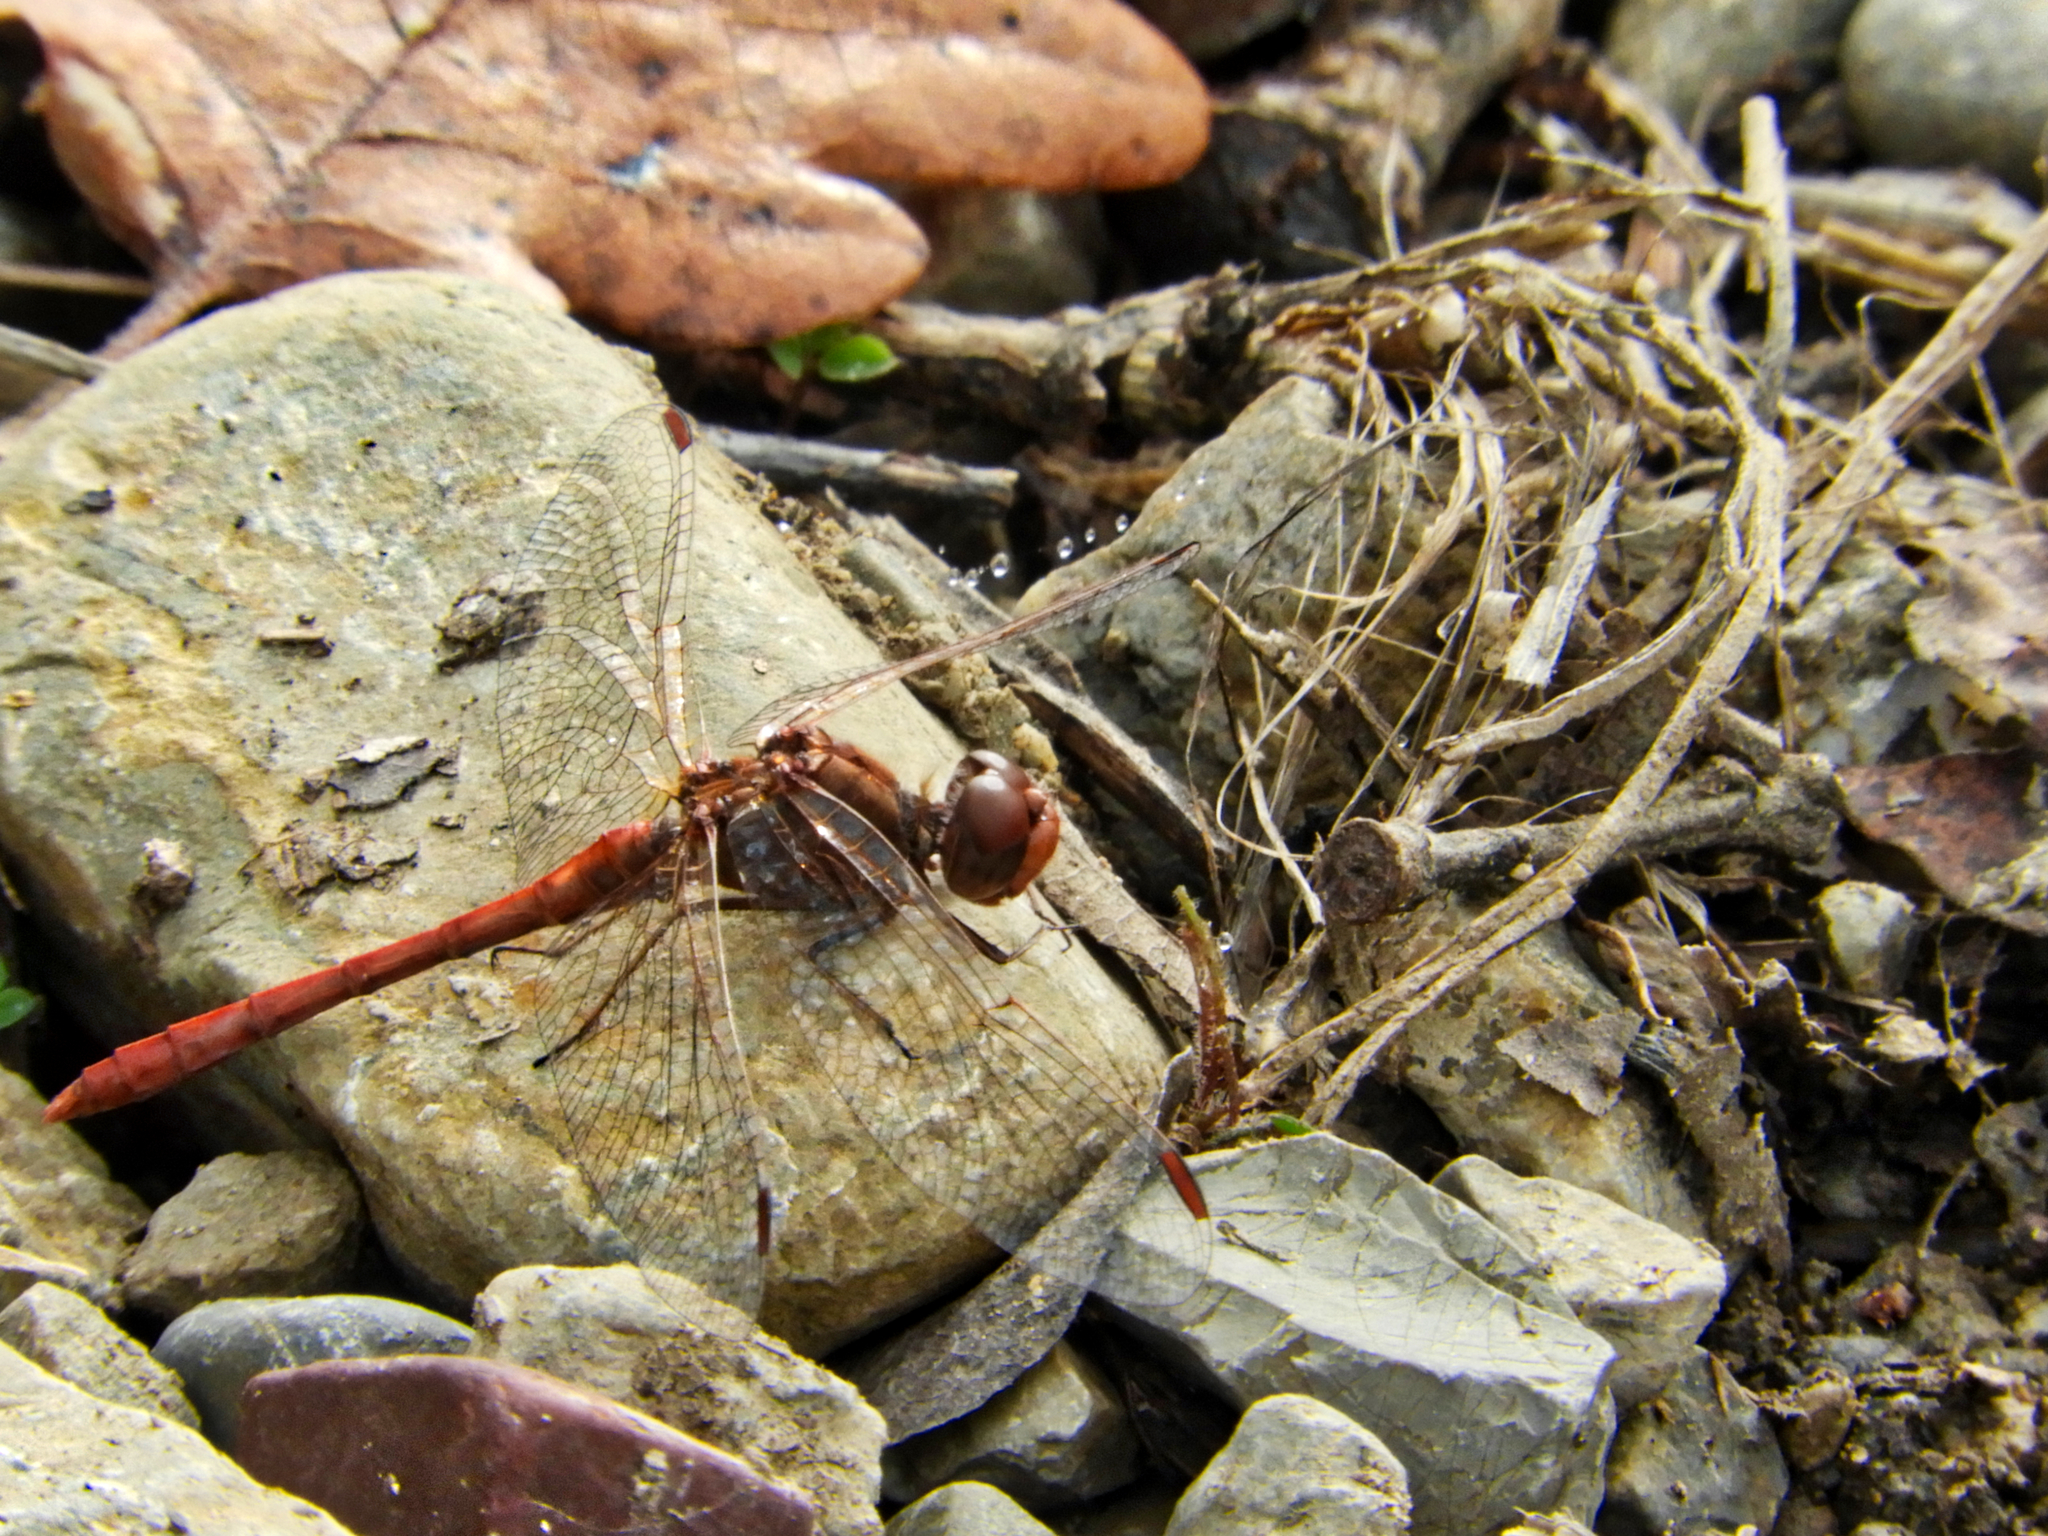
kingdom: Animalia
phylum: Arthropoda
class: Insecta
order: Odonata
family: Libellulidae
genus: Sympetrum
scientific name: Sympetrum meridionale
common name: Southern darter
